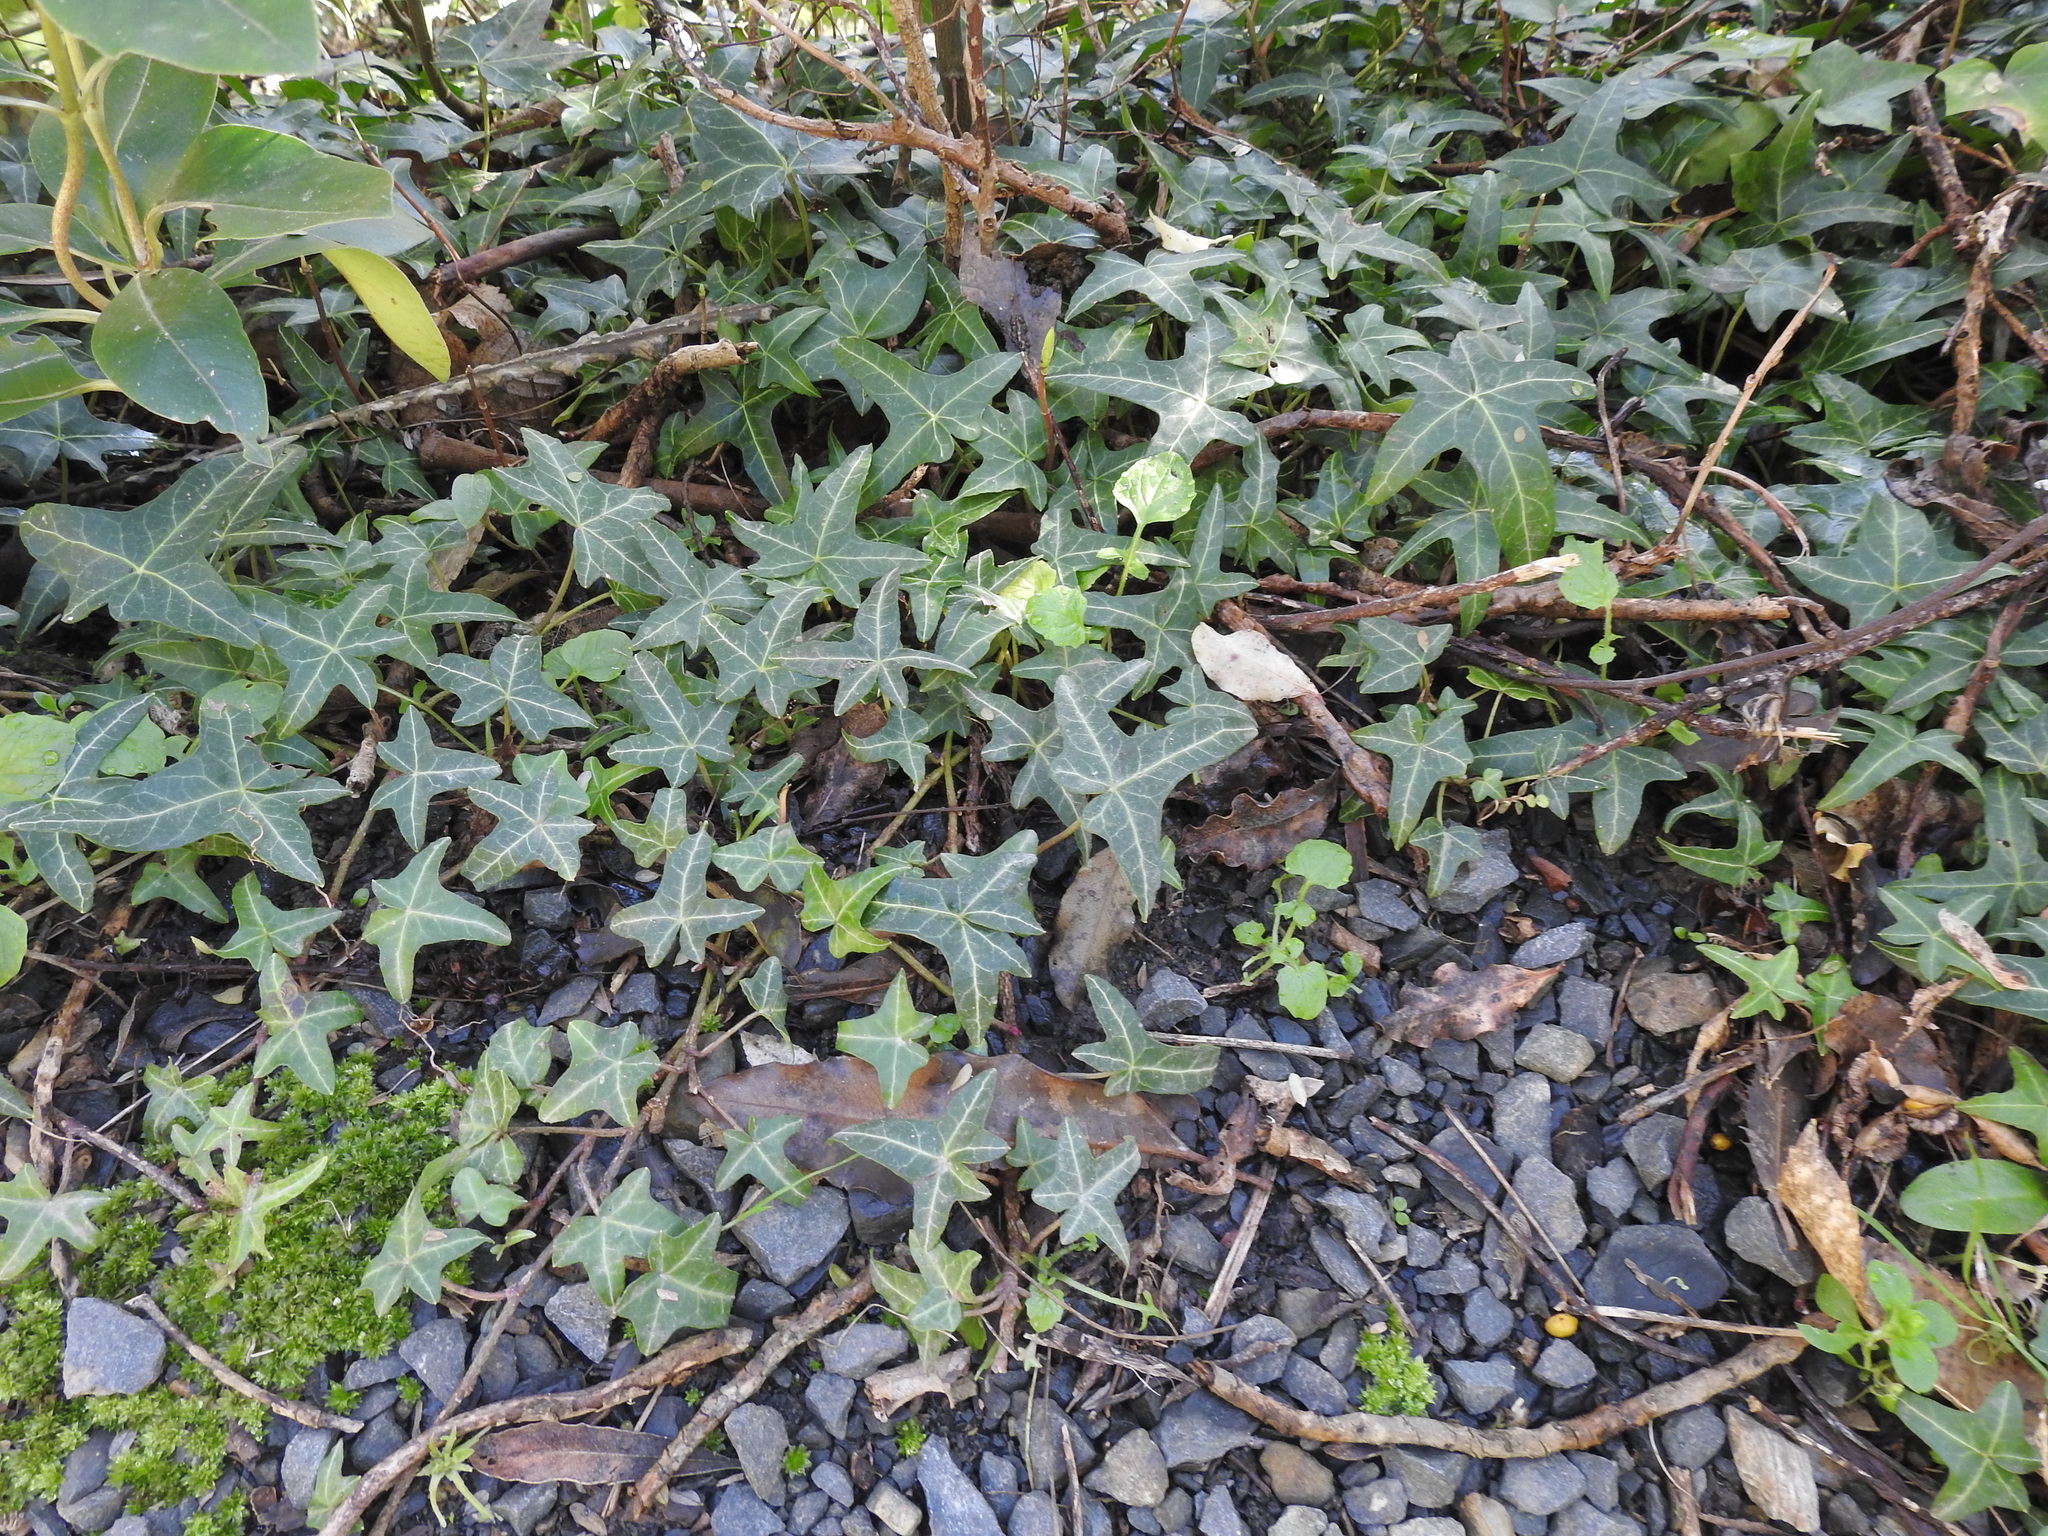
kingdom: Plantae
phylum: Tracheophyta
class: Magnoliopsida
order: Apiales
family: Araliaceae
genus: Hedera
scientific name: Hedera helix
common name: Ivy
